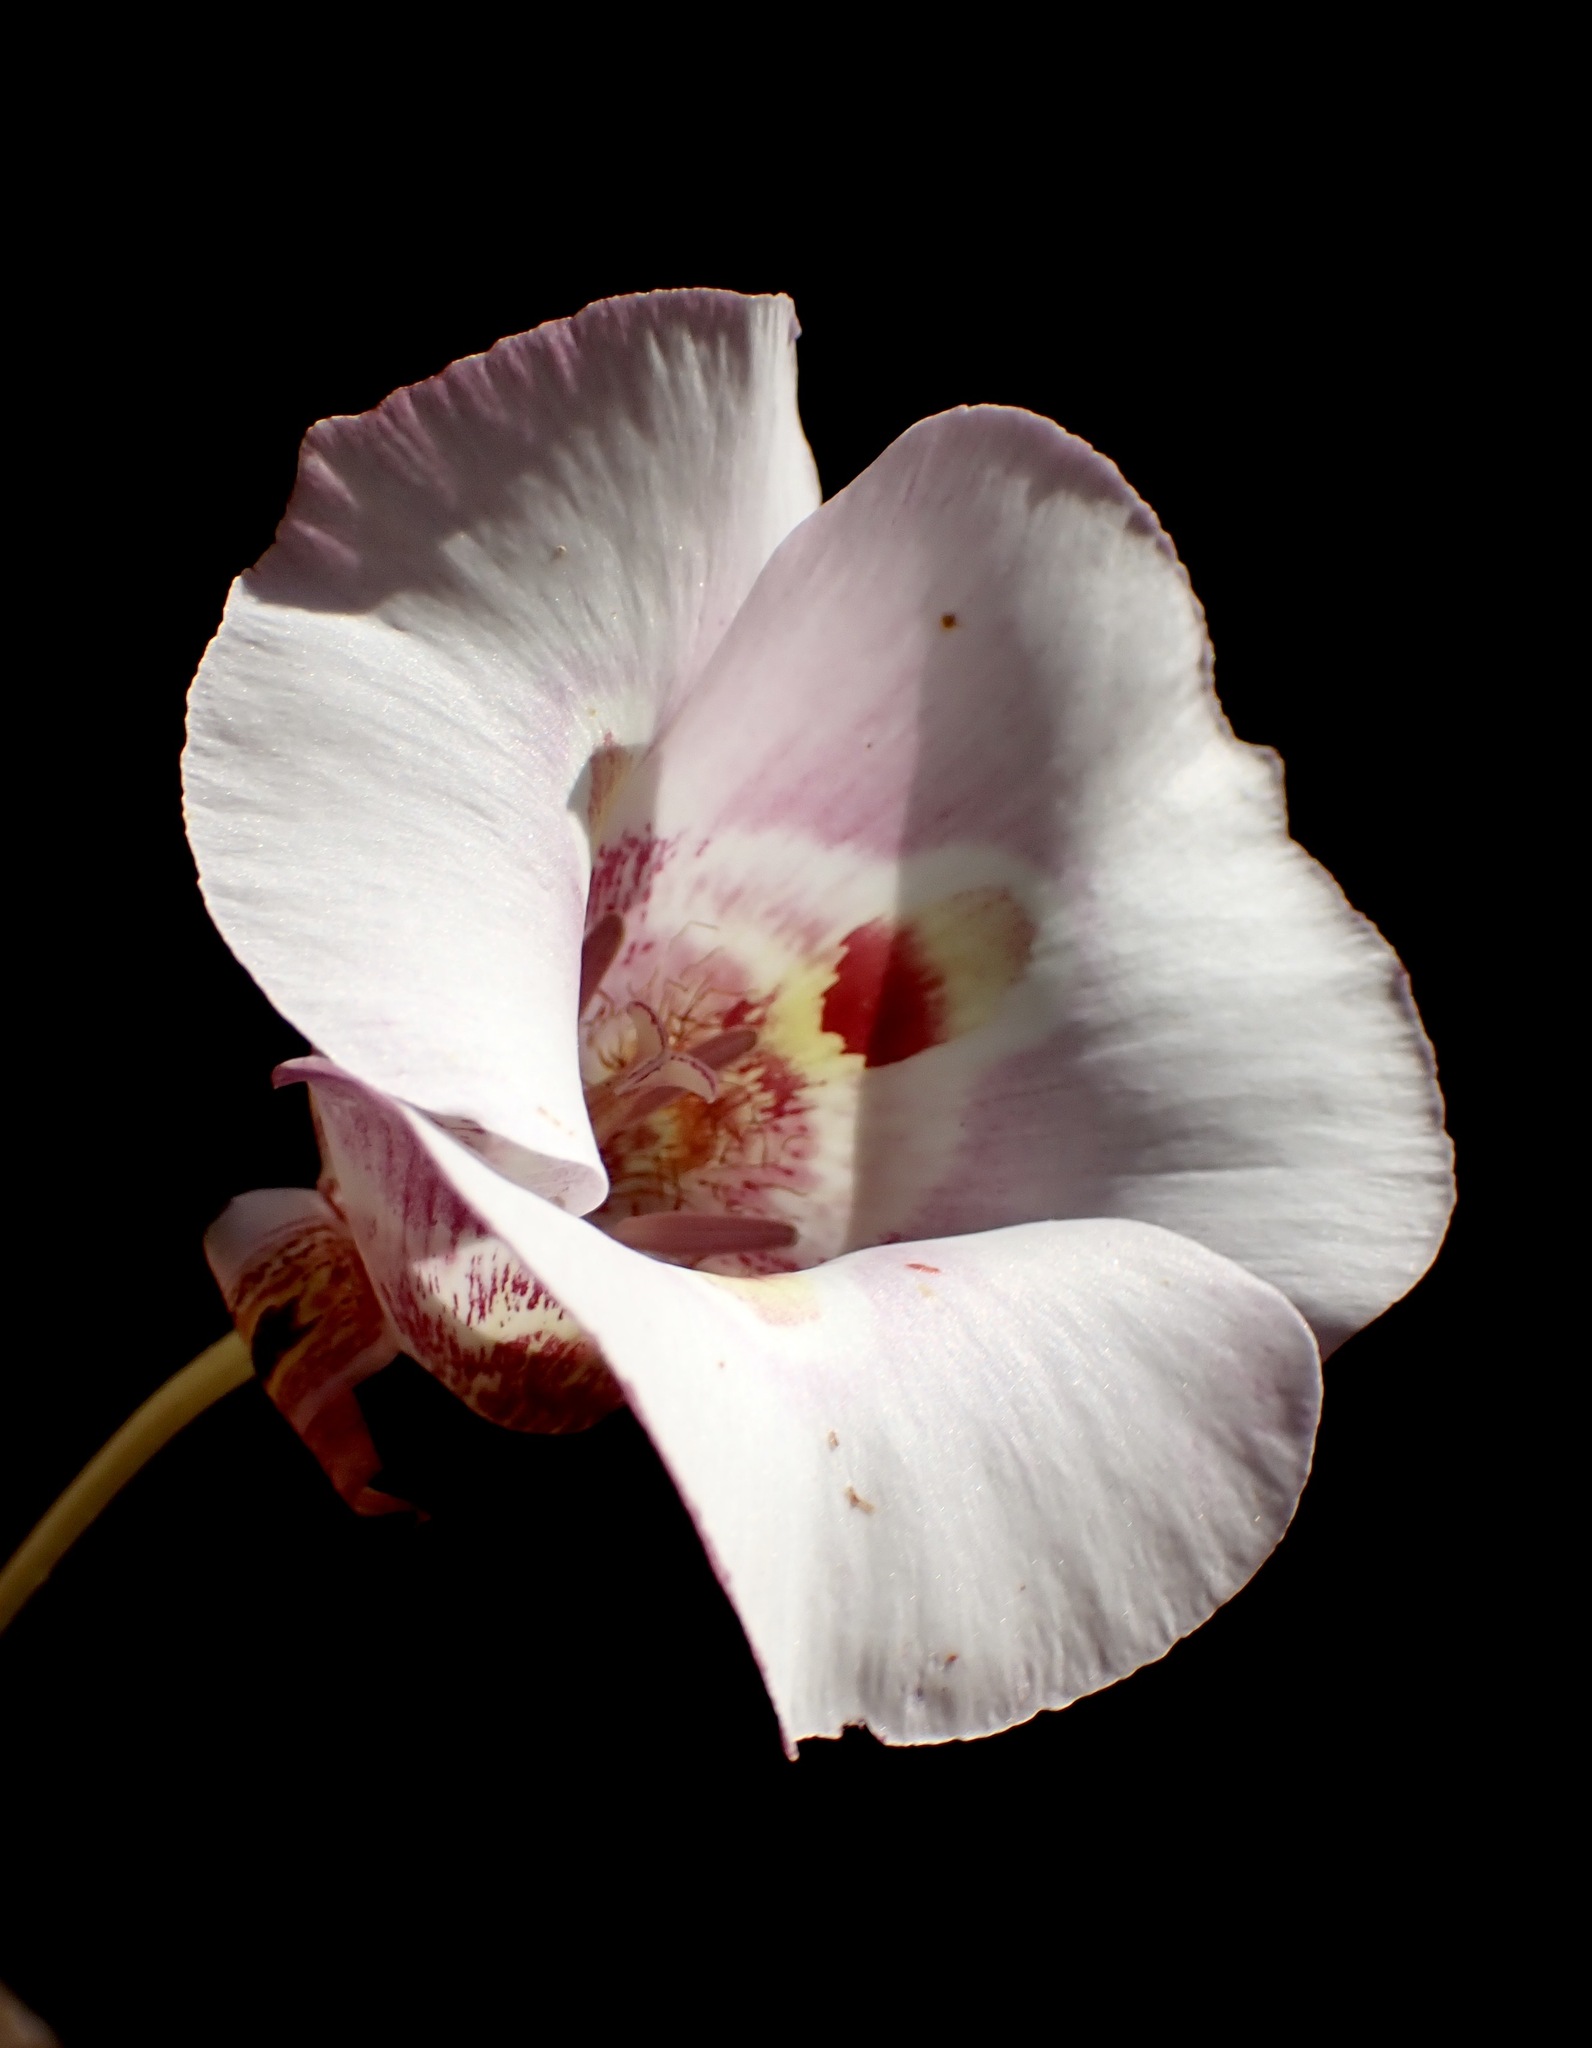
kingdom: Plantae
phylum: Tracheophyta
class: Liliopsida
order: Liliales
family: Liliaceae
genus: Calochortus
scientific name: Calochortus venustus
